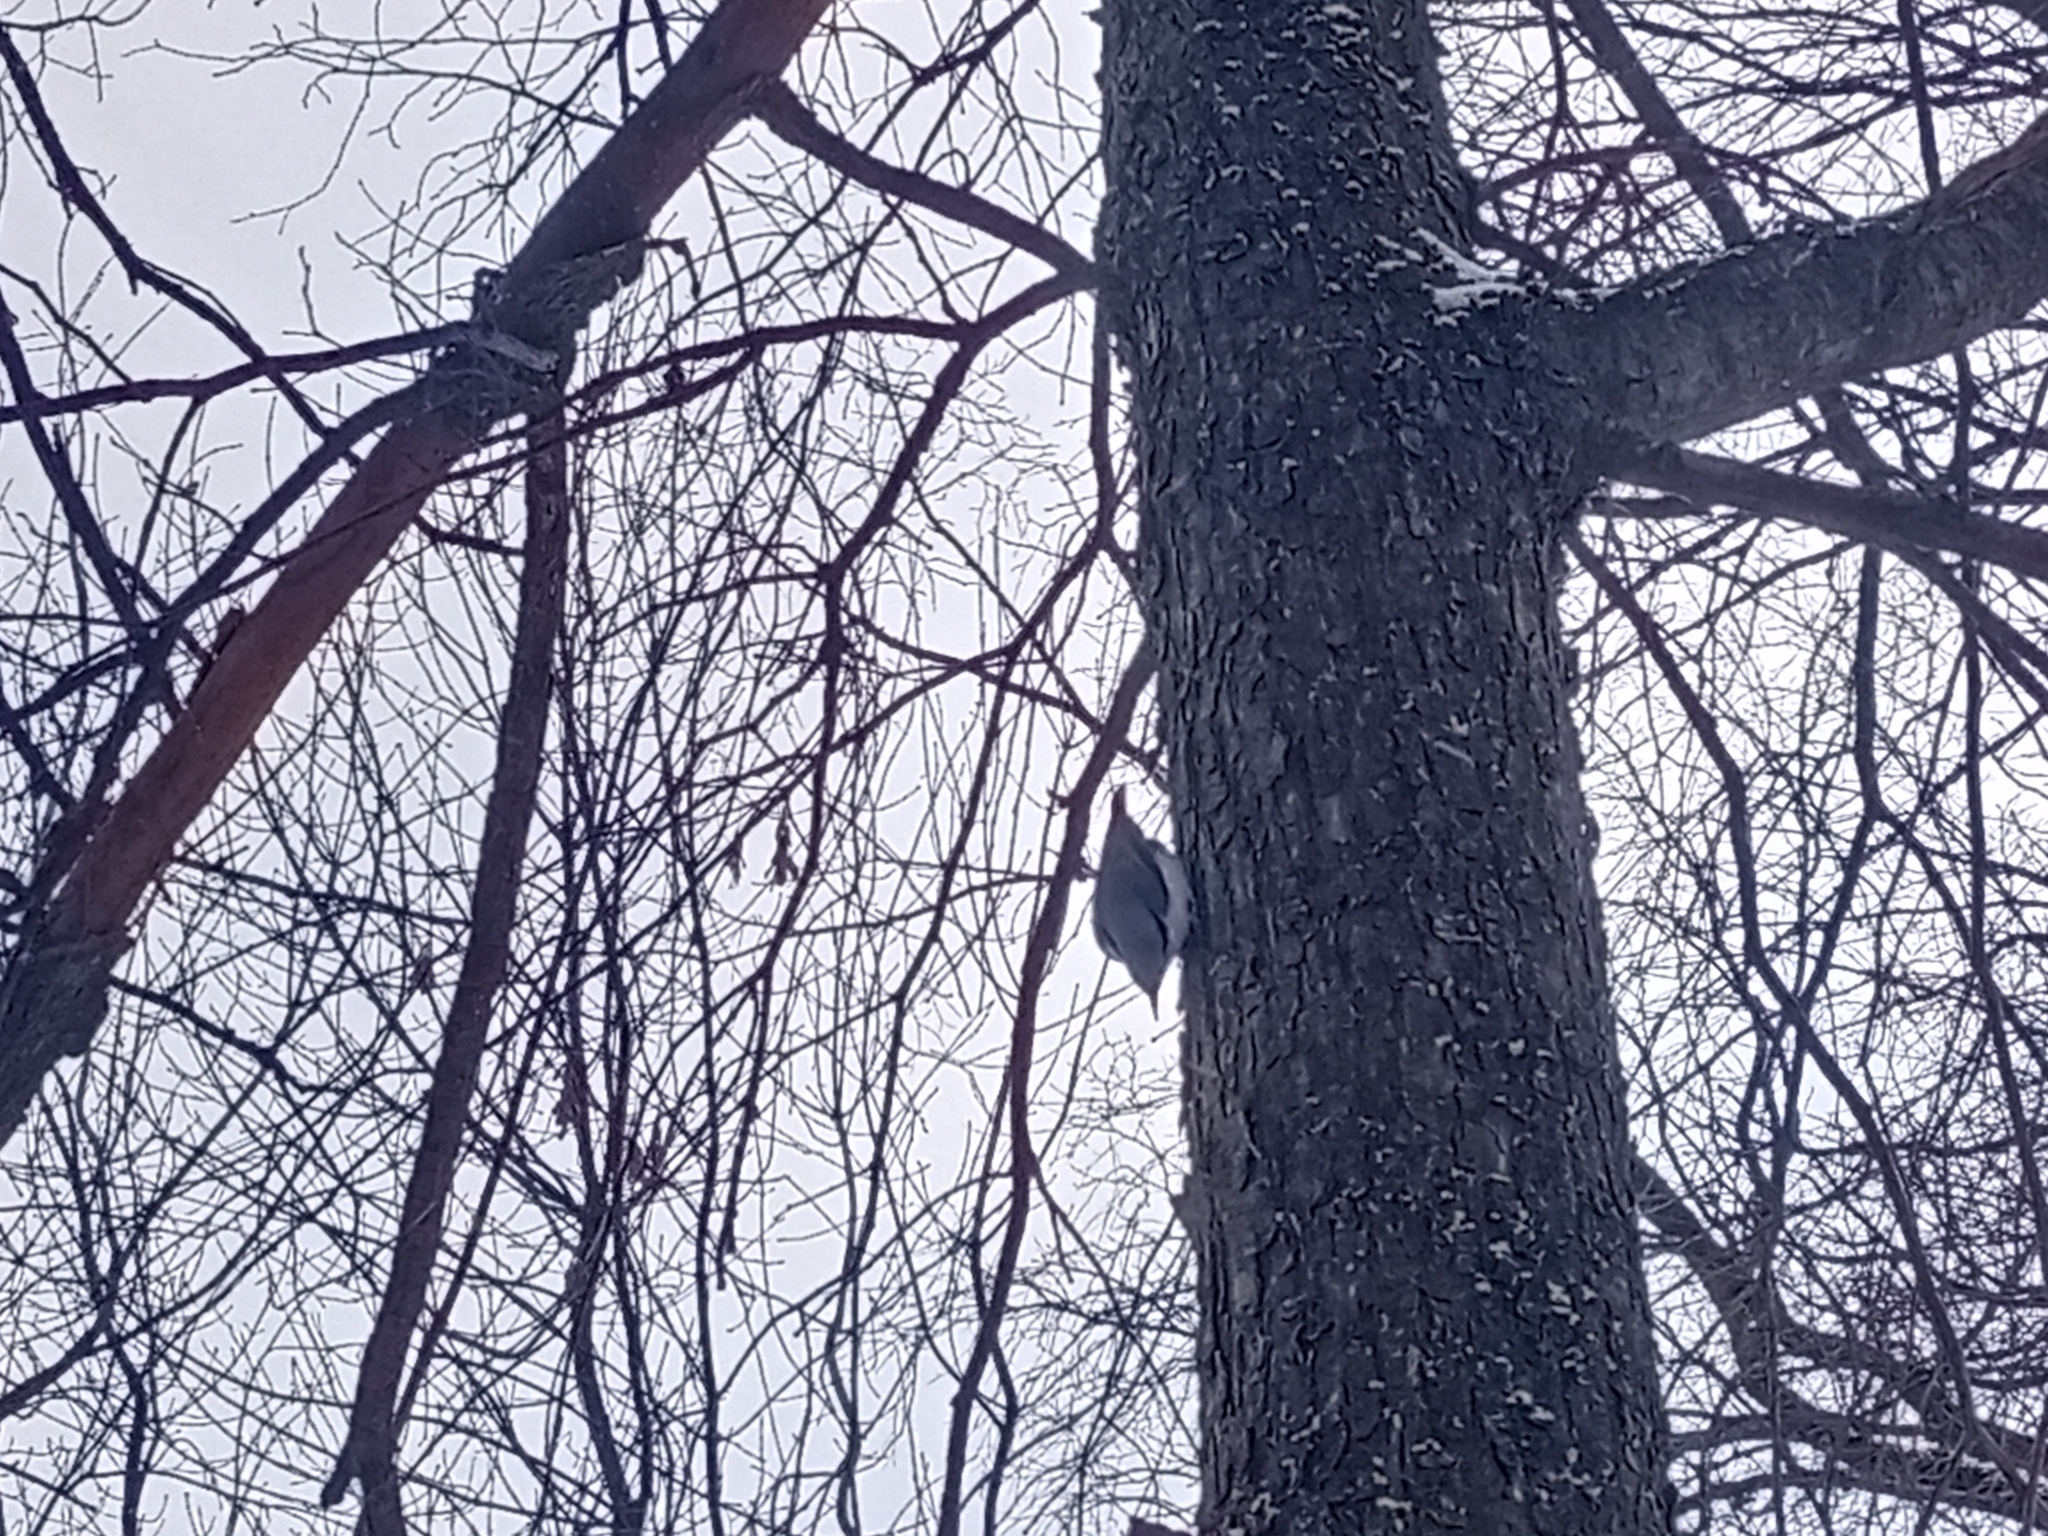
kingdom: Animalia
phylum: Chordata
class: Aves
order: Passeriformes
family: Sittidae
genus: Sitta
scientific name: Sitta europaea
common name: Eurasian nuthatch
